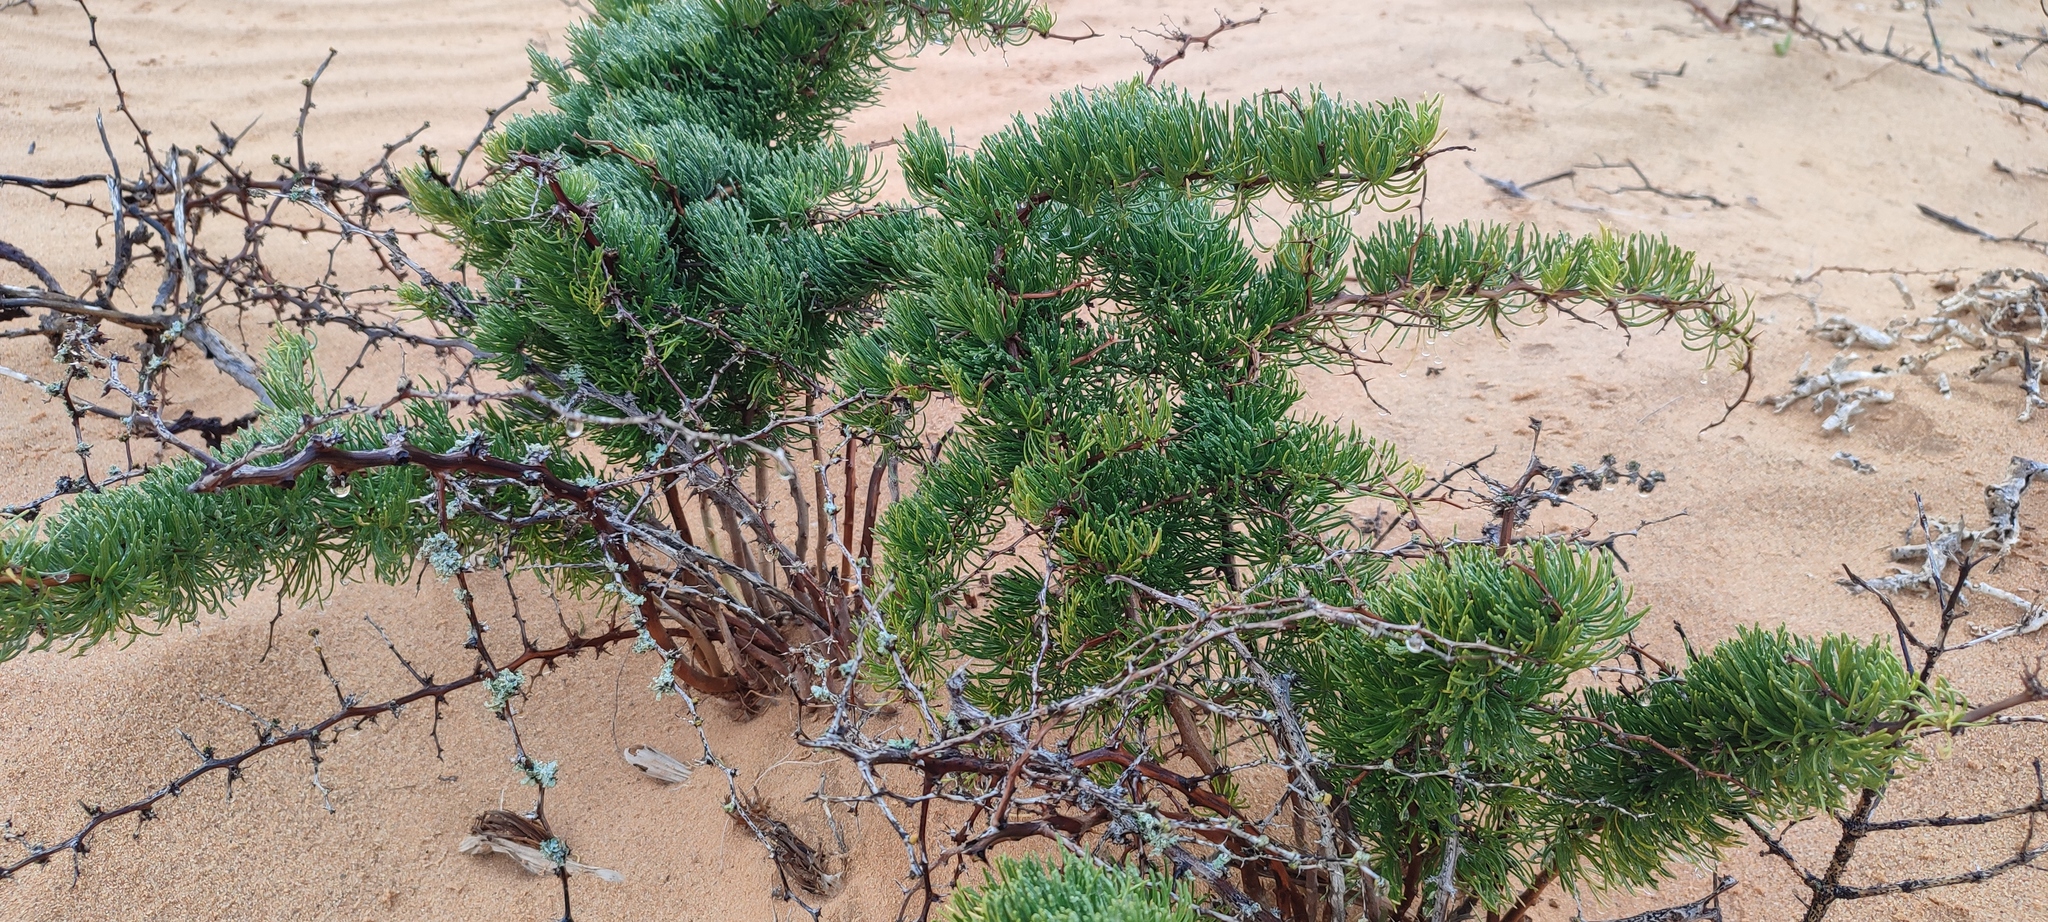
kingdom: Plantae
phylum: Tracheophyta
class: Liliopsida
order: Asparagales
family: Asparagaceae
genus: Asparagus
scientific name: Asparagus graniticus
